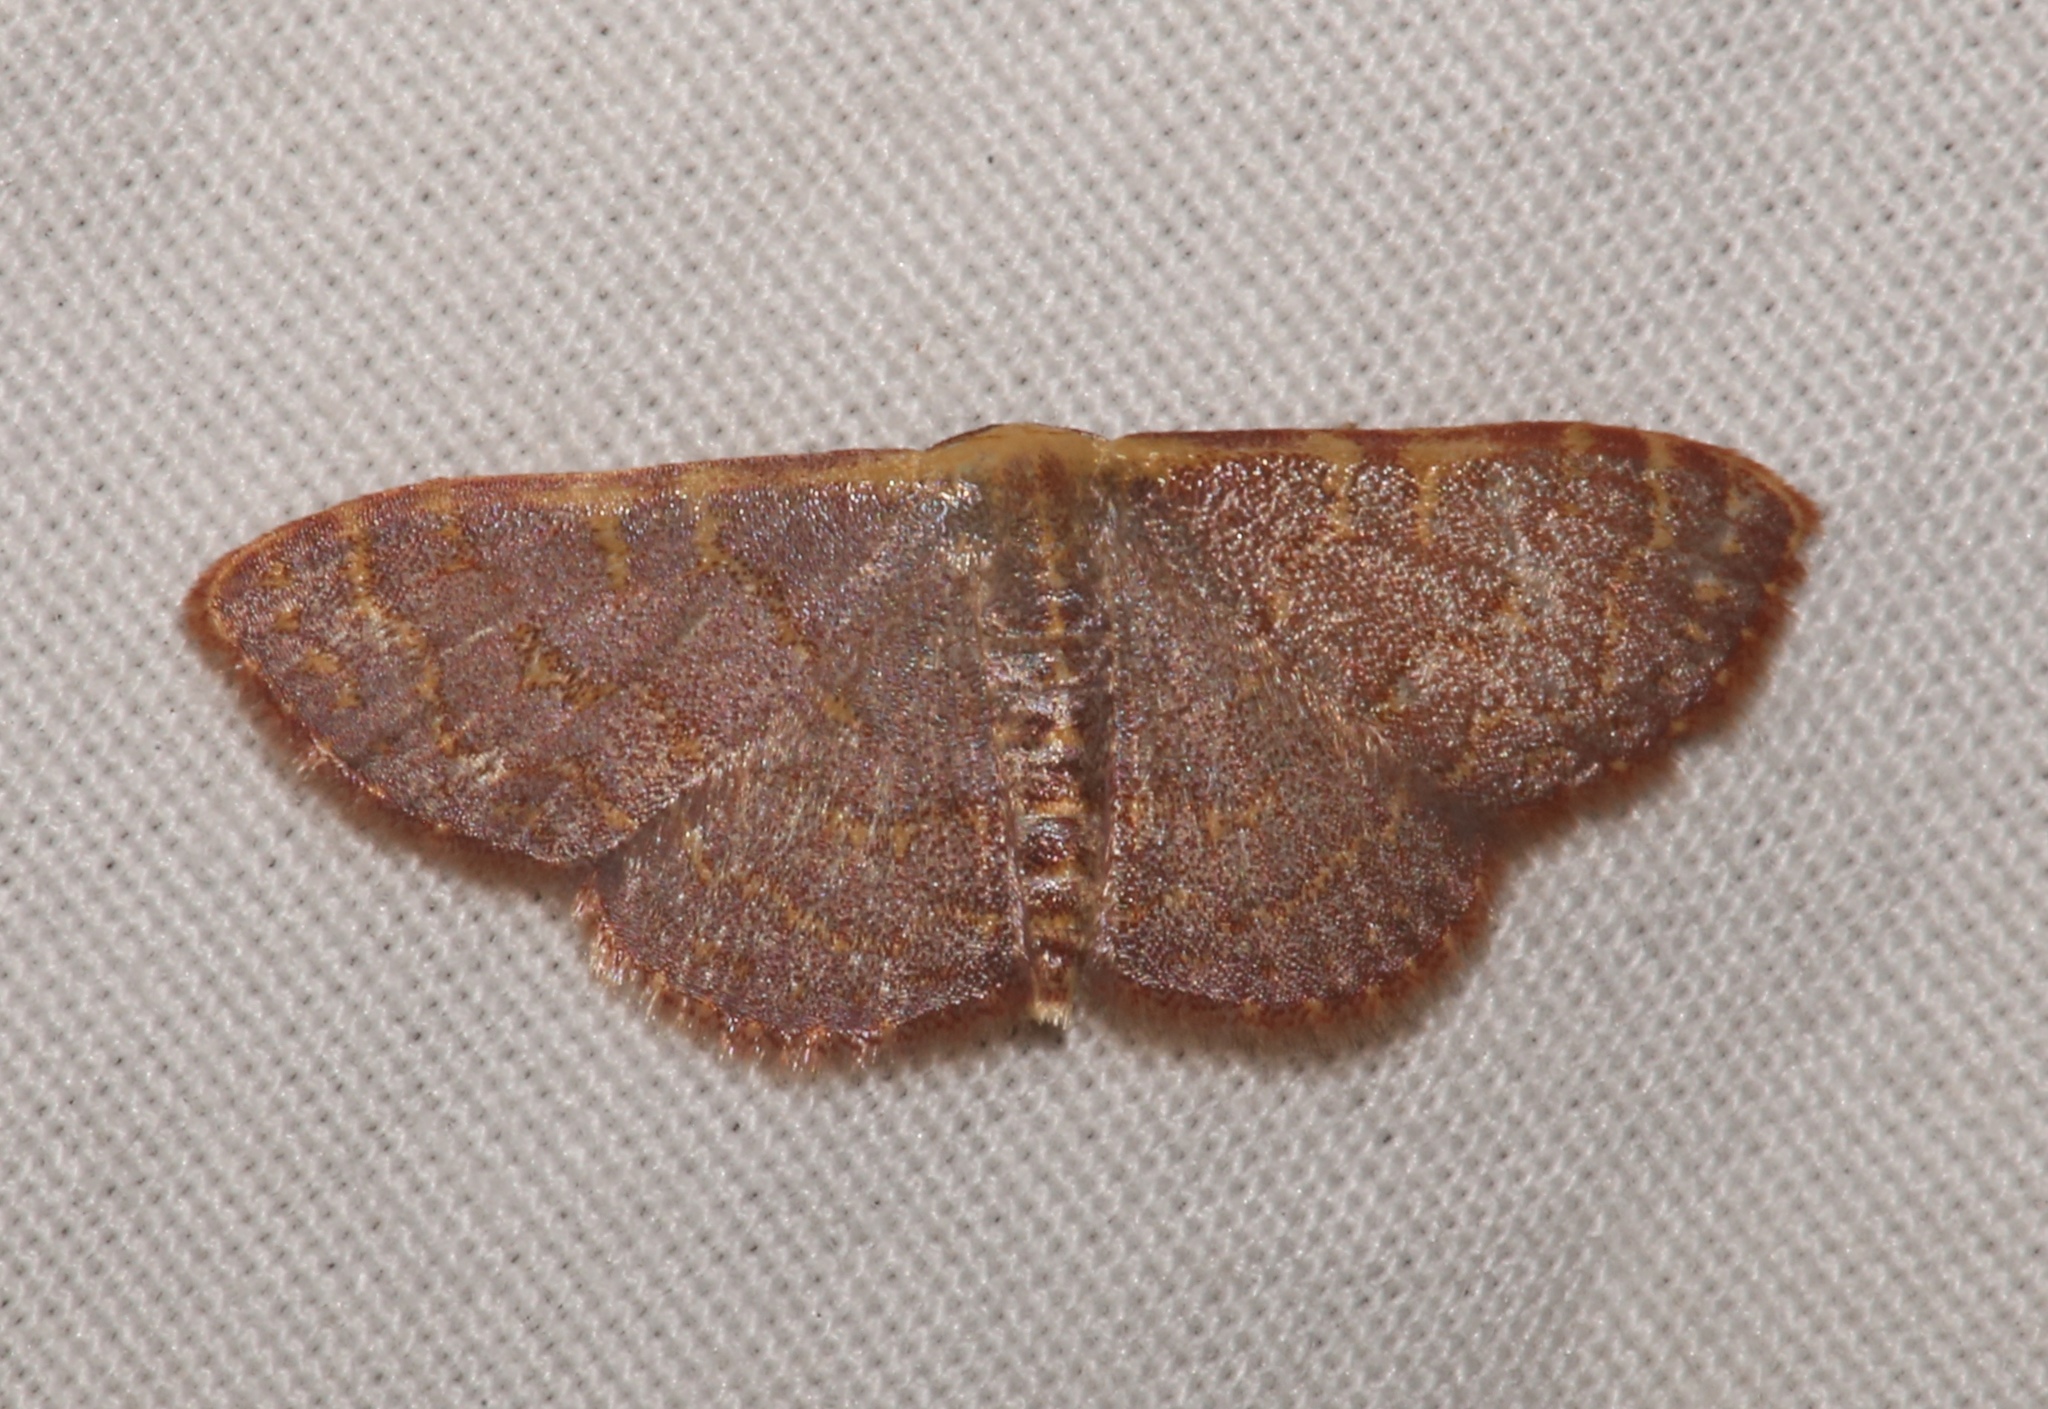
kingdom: Animalia
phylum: Arthropoda
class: Insecta
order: Lepidoptera
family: Geometridae
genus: Leptostales
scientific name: Leptostales pannaria
